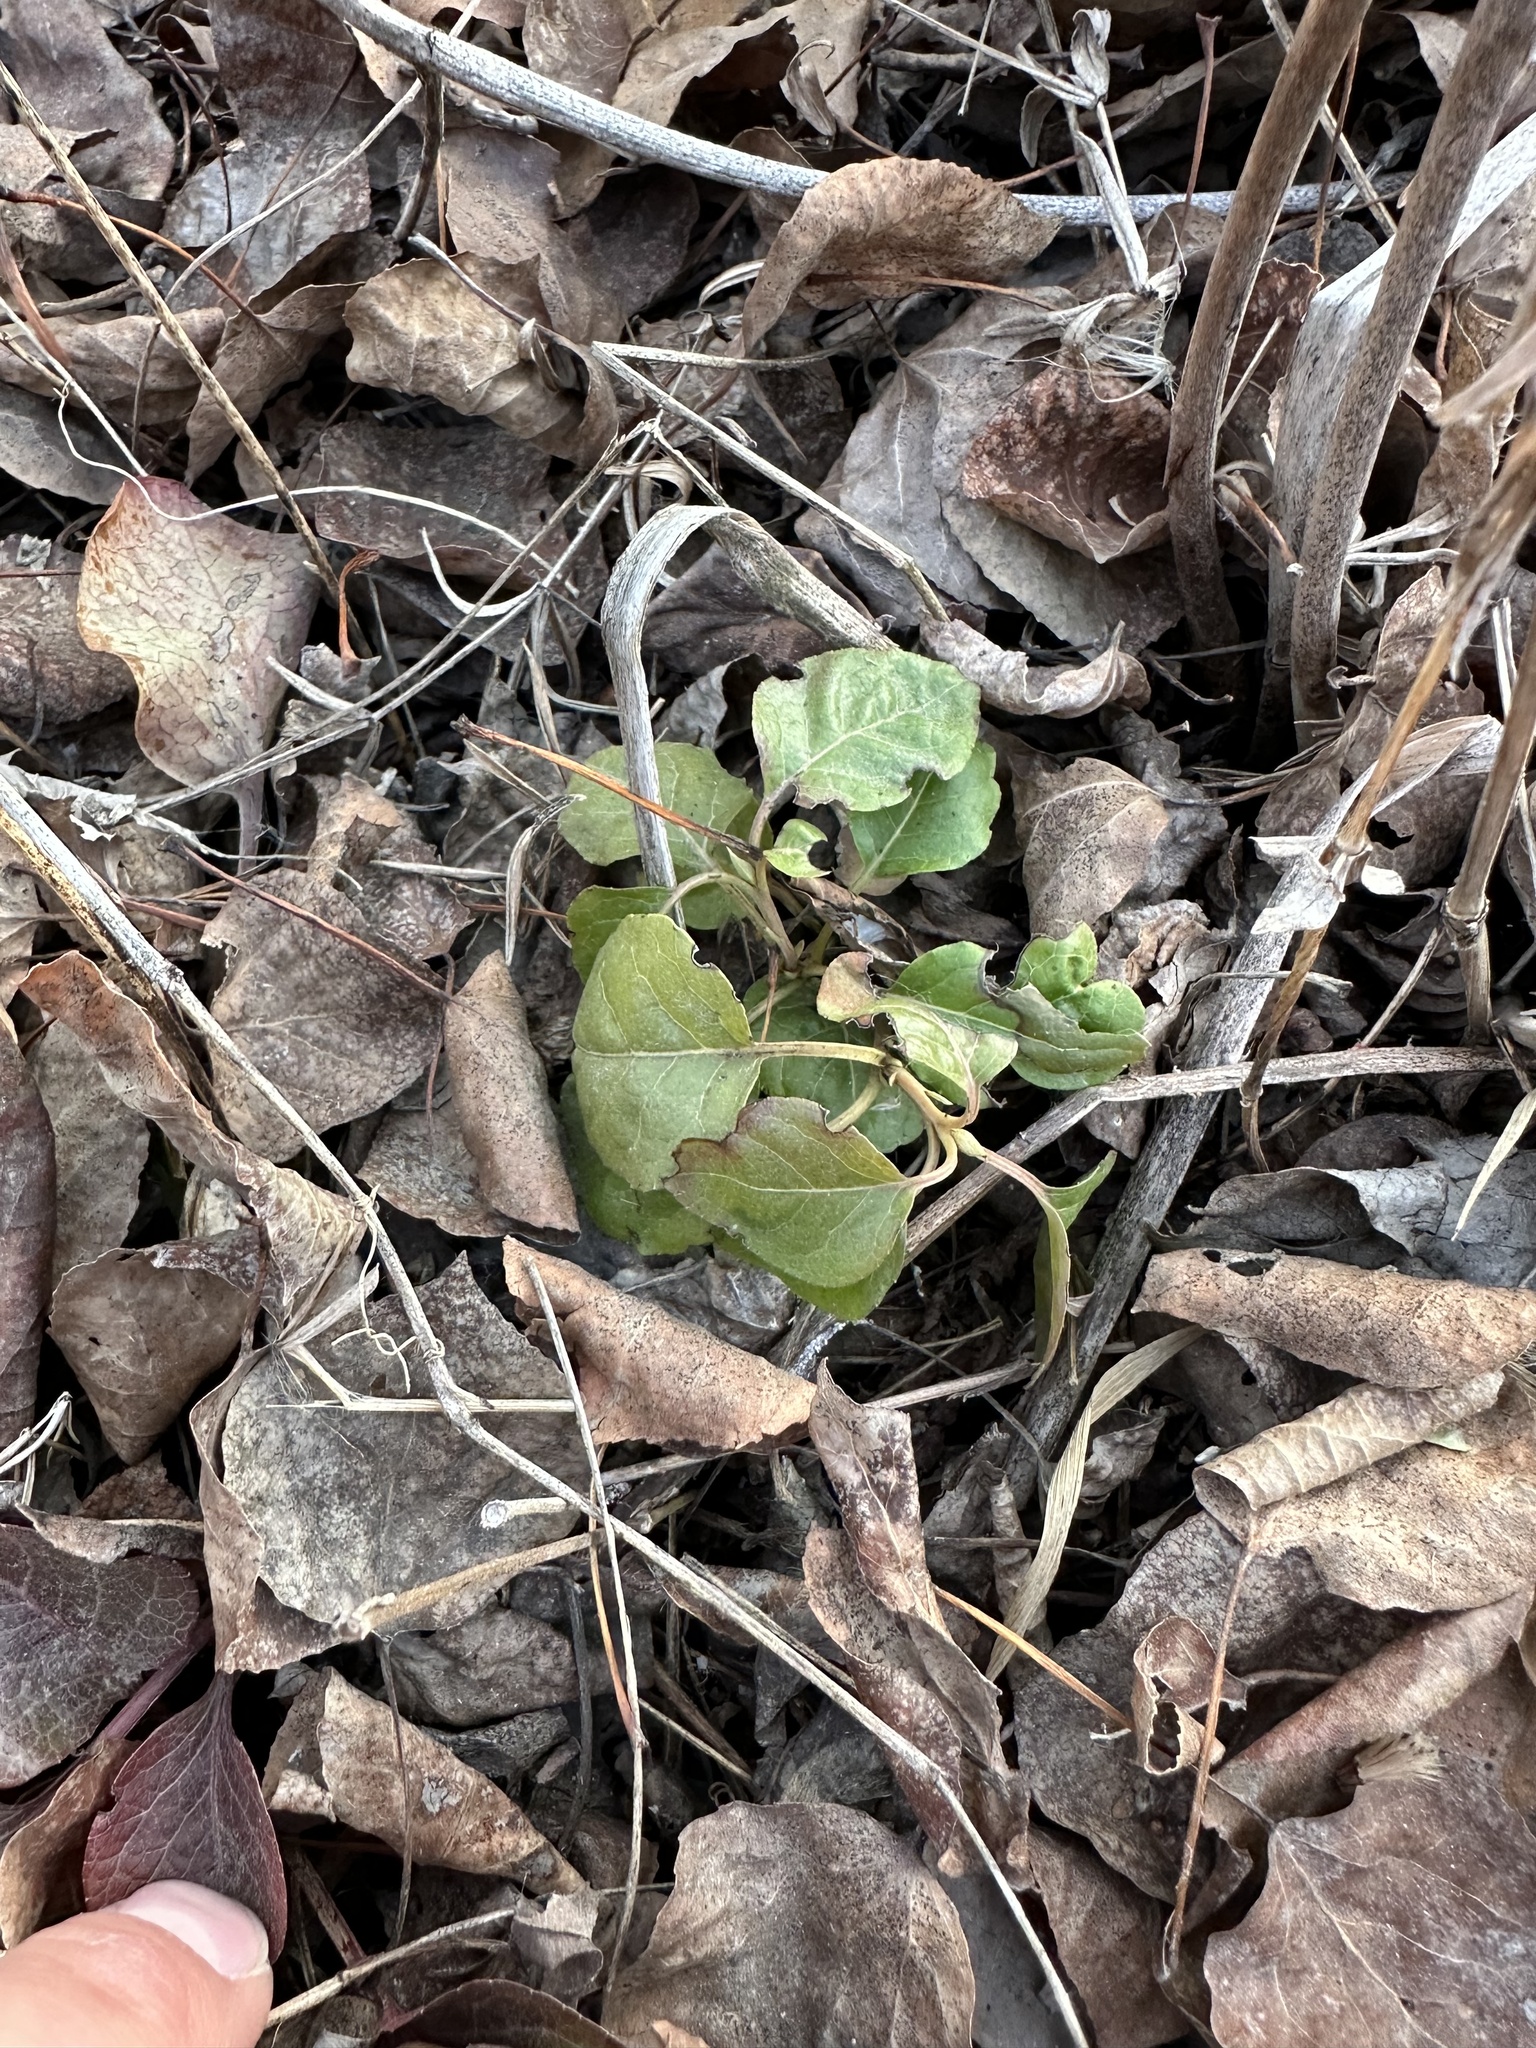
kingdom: Plantae
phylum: Tracheophyta
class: Magnoliopsida
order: Ericales
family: Ericaceae
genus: Orthilia
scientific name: Orthilia secunda
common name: One-sided orthilia
